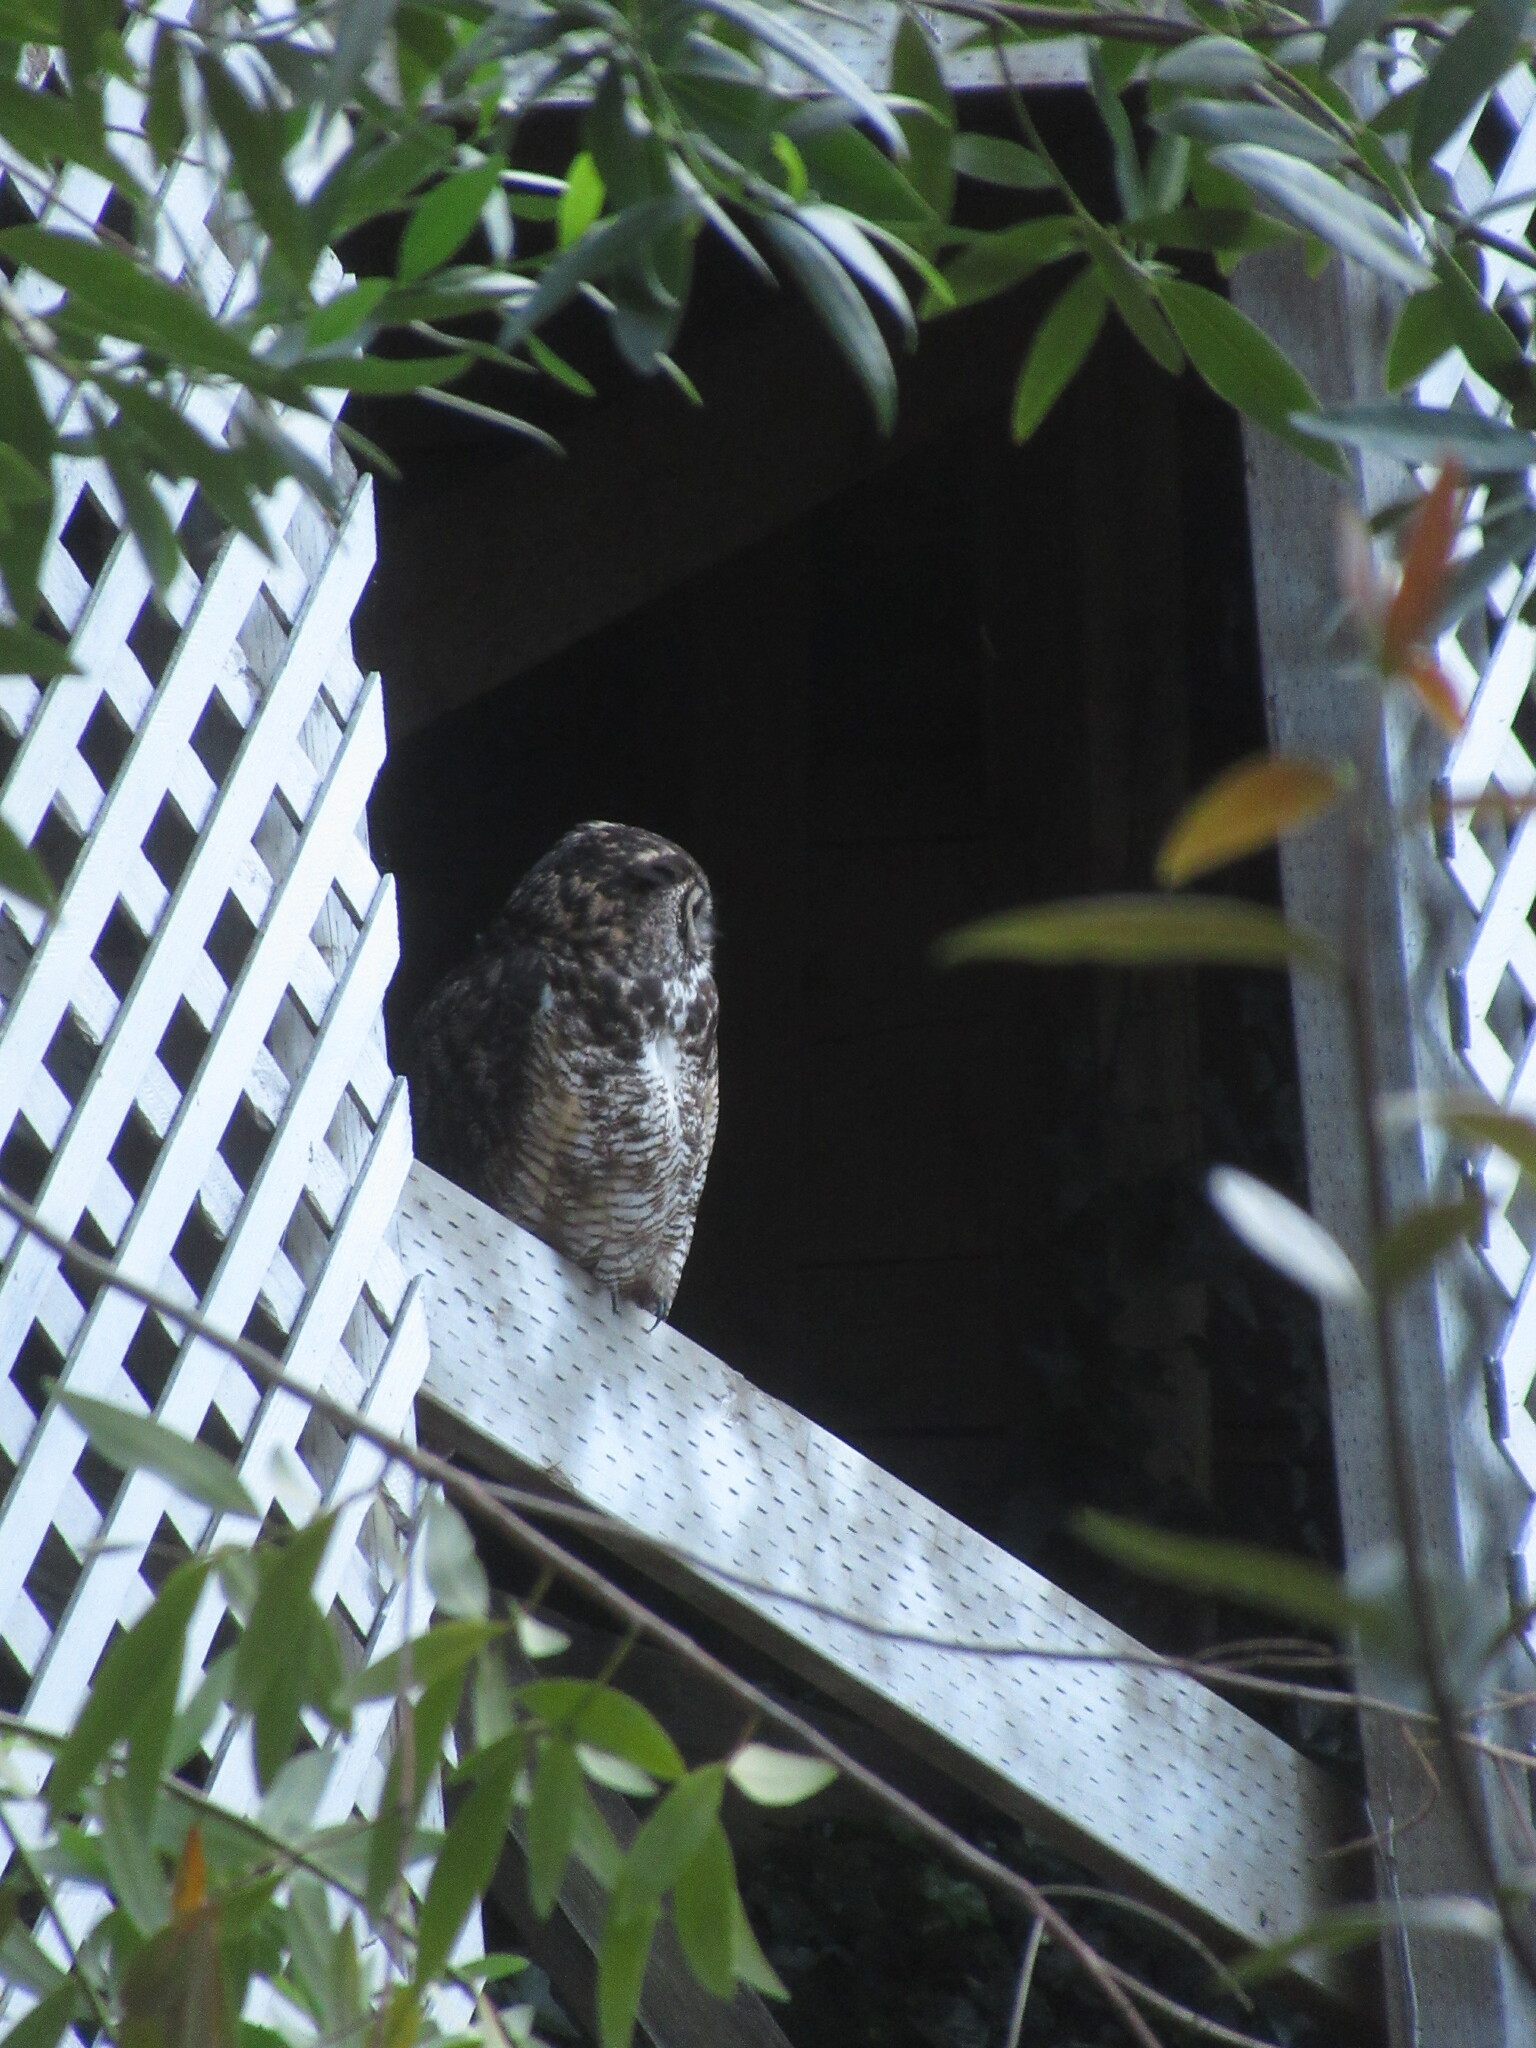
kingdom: Animalia
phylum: Chordata
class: Aves
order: Strigiformes
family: Strigidae
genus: Bubo
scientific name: Bubo virginianus
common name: Great horned owl
